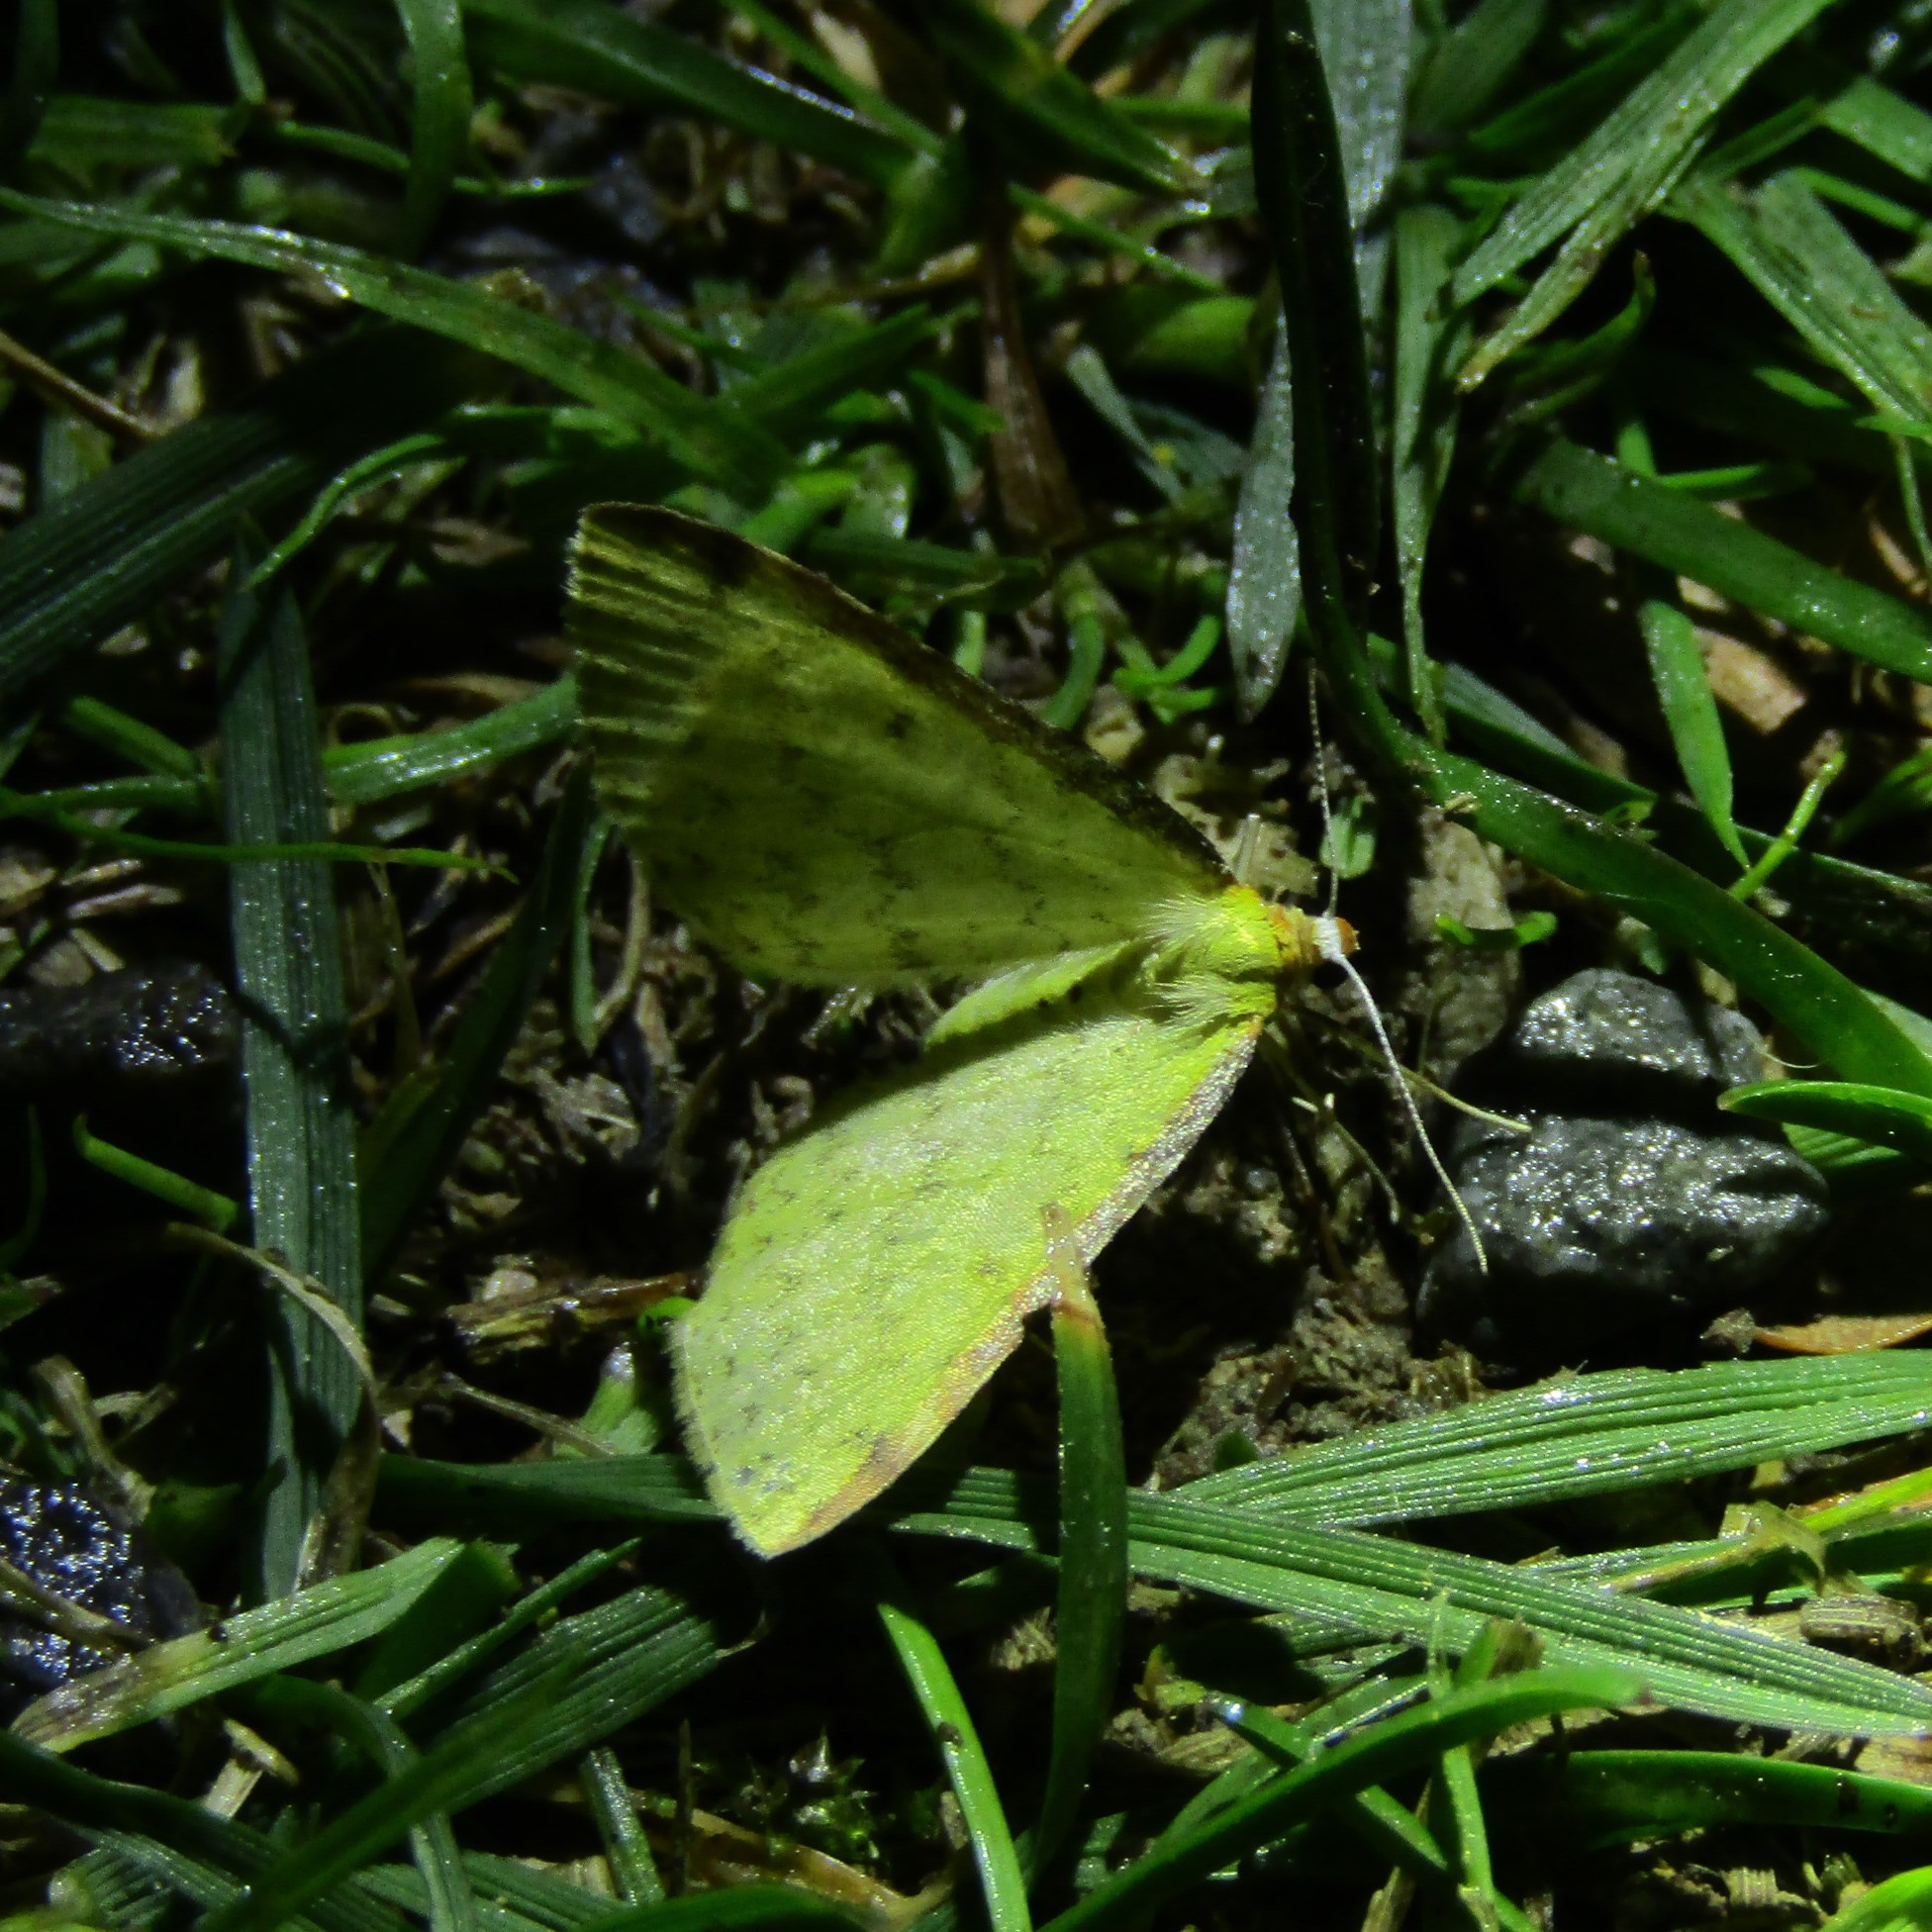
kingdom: Animalia
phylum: Arthropoda
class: Insecta
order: Lepidoptera
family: Geometridae
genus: Epiphryne
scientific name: Epiphryne undosata
